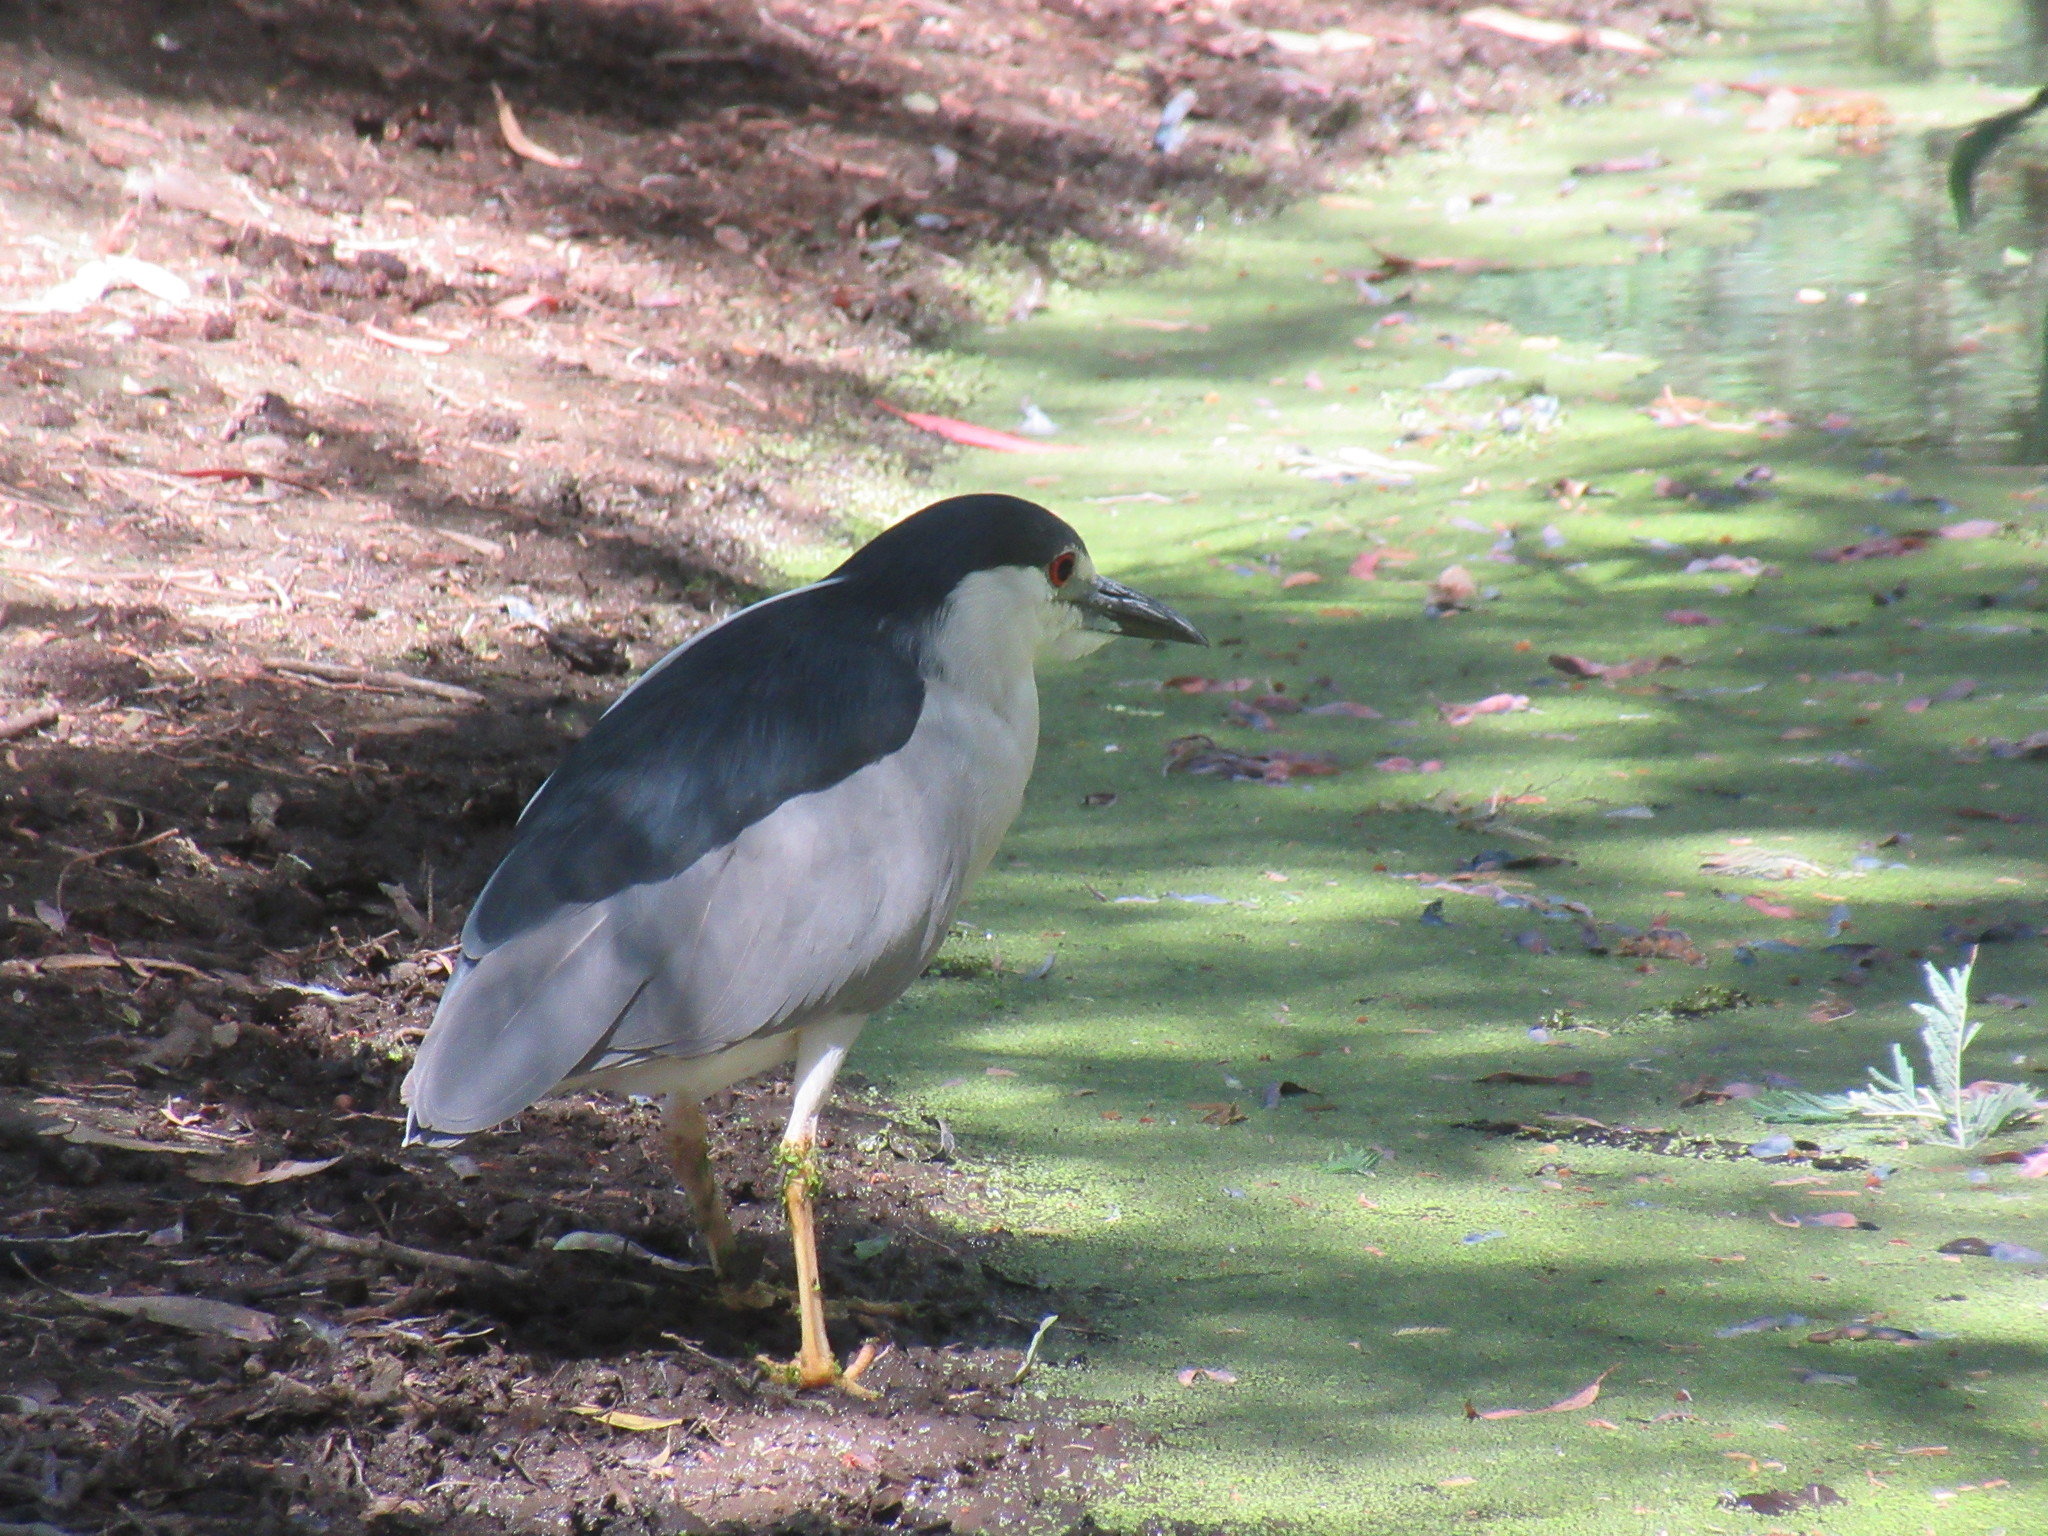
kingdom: Animalia
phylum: Chordata
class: Aves
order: Pelecaniformes
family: Ardeidae
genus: Nycticorax
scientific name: Nycticorax nycticorax
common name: Black-crowned night heron
